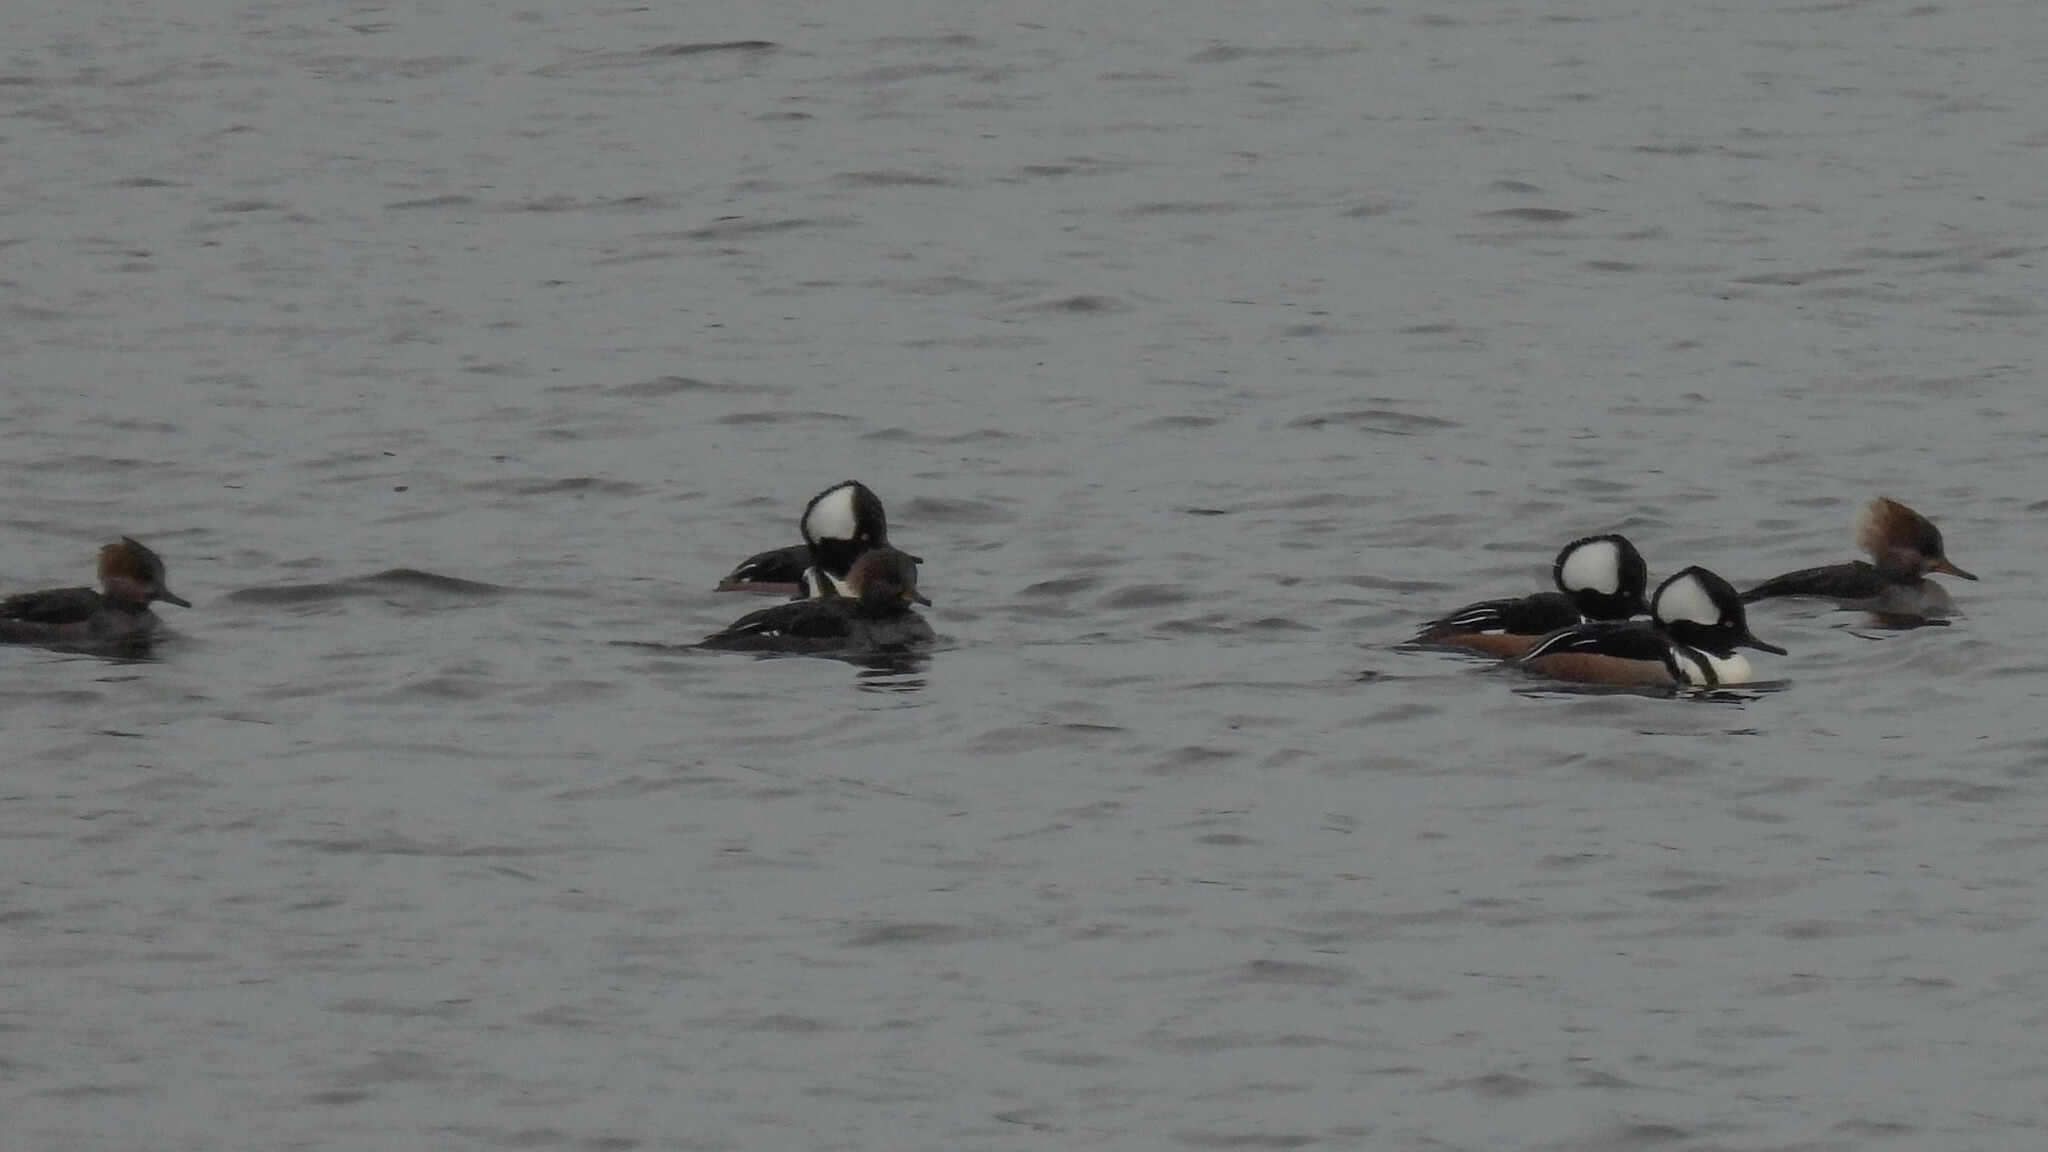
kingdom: Animalia
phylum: Chordata
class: Aves
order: Anseriformes
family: Anatidae
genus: Lophodytes
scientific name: Lophodytes cucullatus
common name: Hooded merganser
